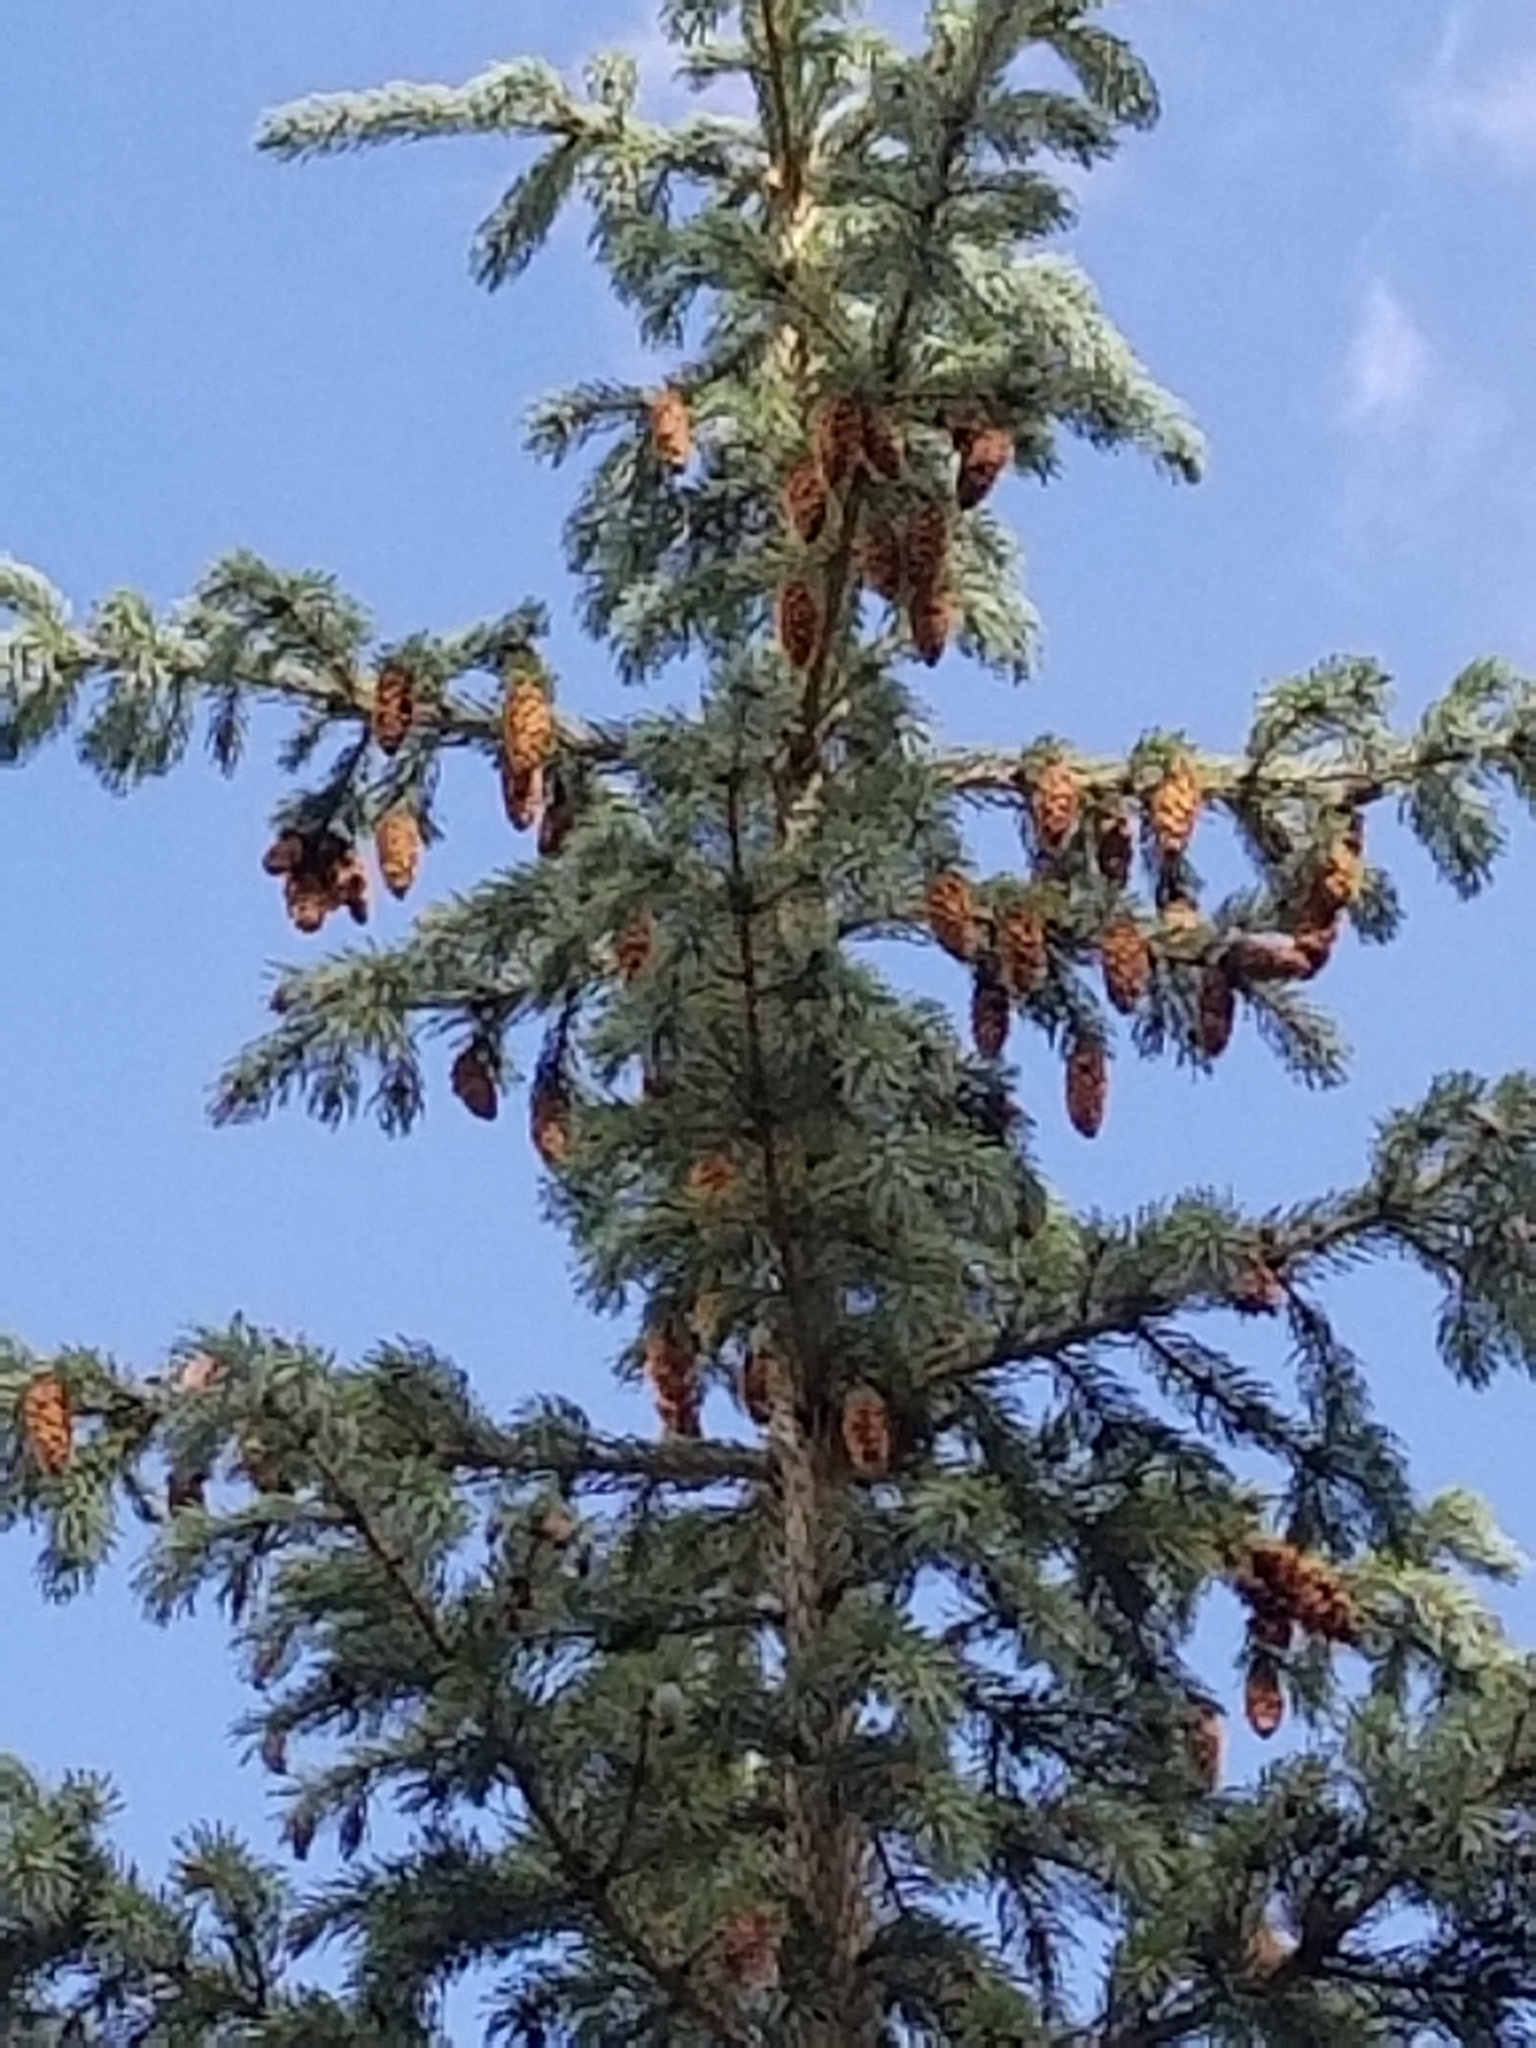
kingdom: Plantae
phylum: Tracheophyta
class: Pinopsida
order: Pinales
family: Pinaceae
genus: Picea
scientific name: Picea pungens
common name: Colorado spruce
